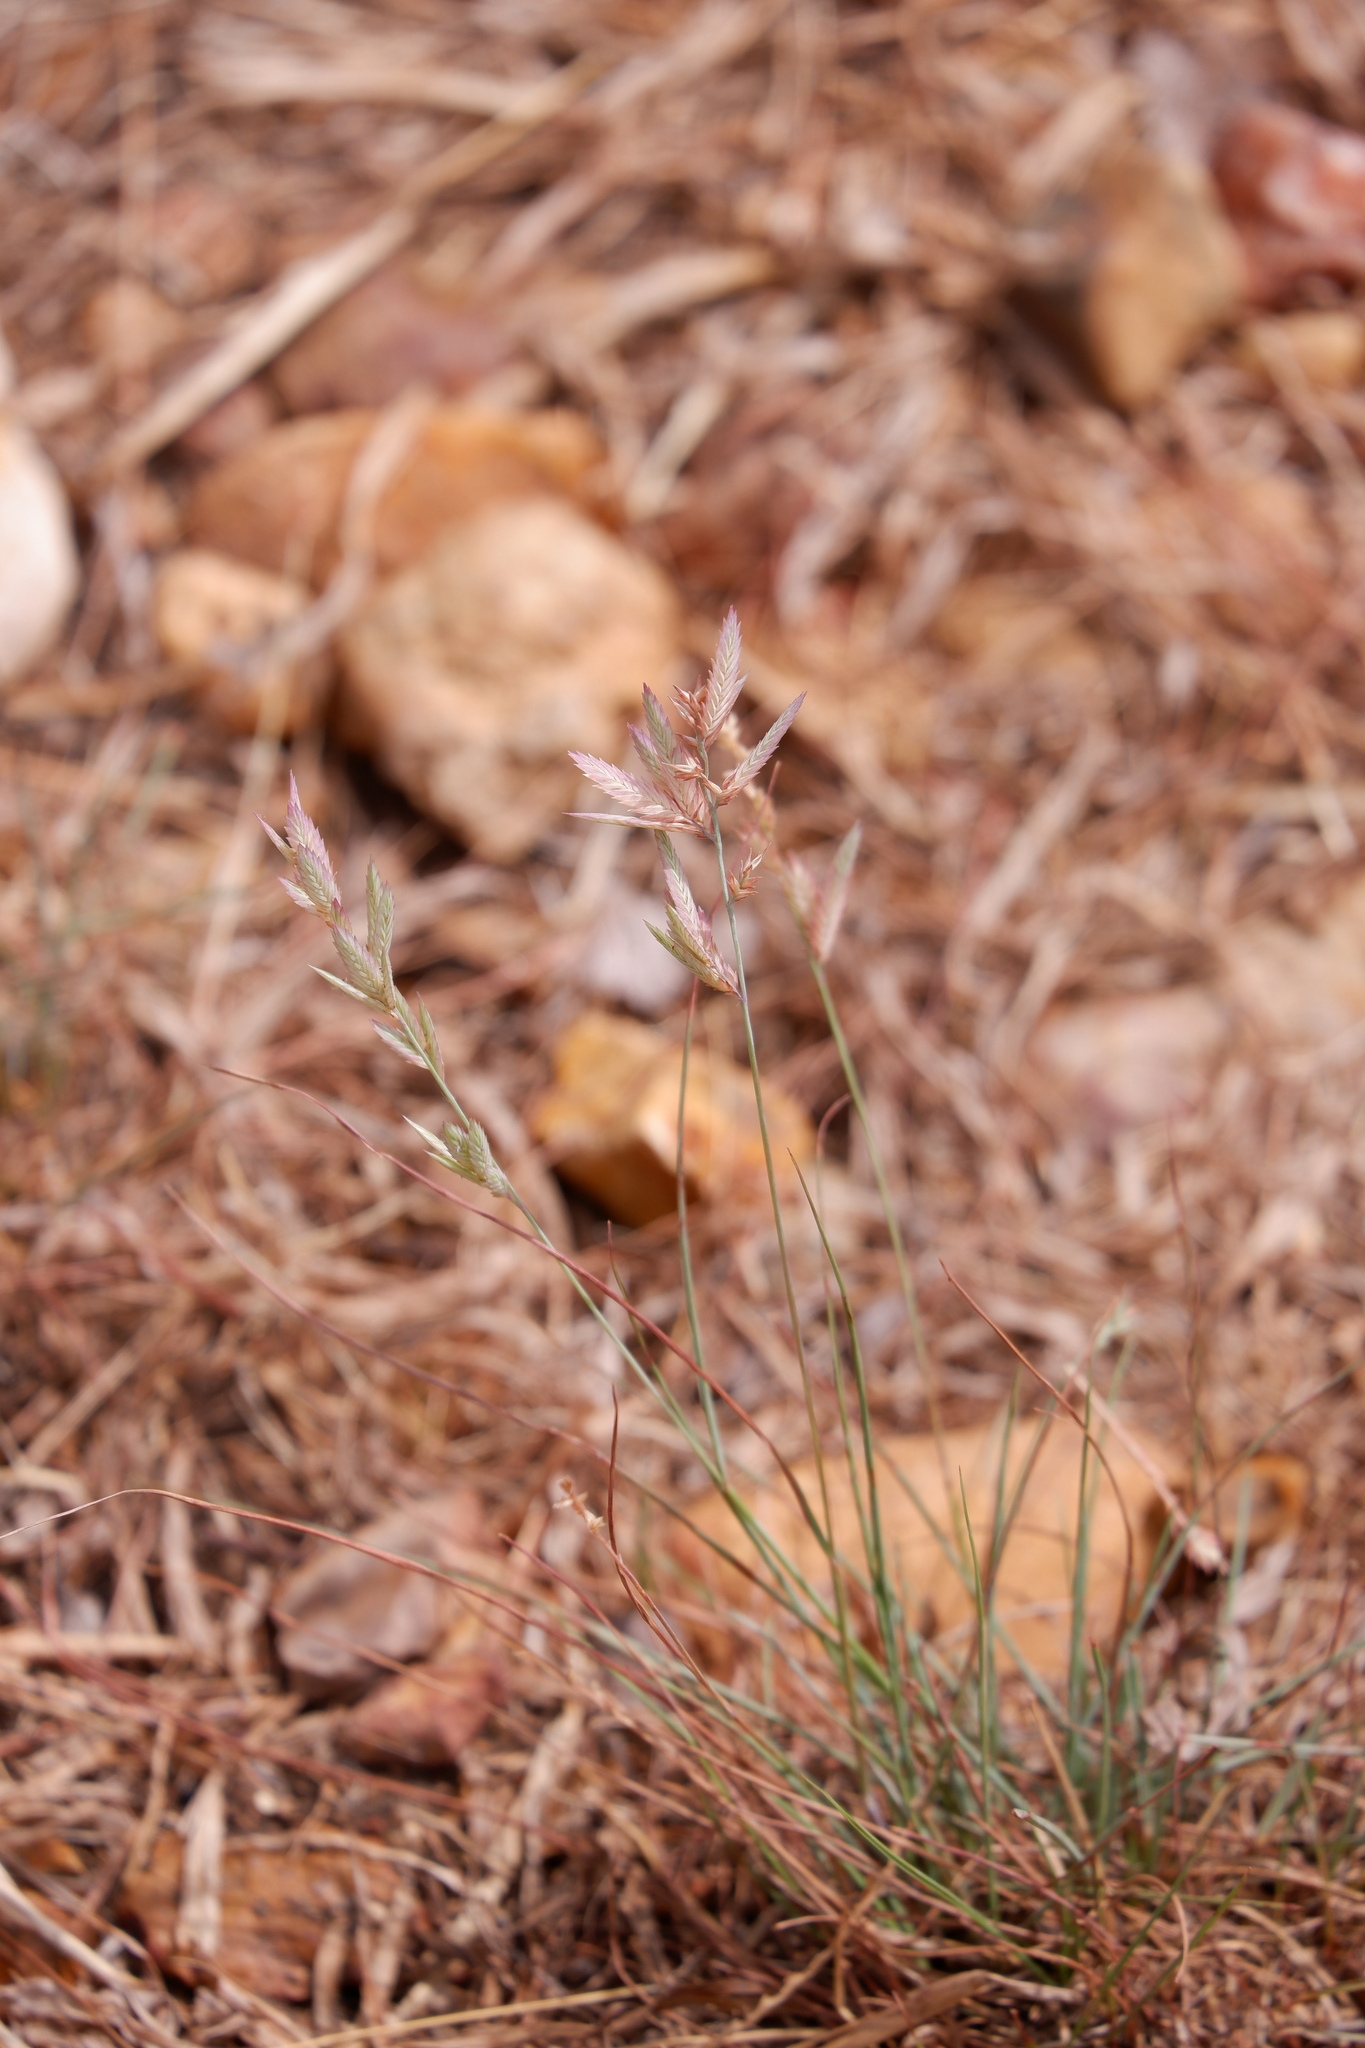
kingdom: Plantae
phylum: Tracheophyta
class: Liliopsida
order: Poales
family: Poaceae
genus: Eragrostis
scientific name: Eragrostis secundiflora
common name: Red love grass
